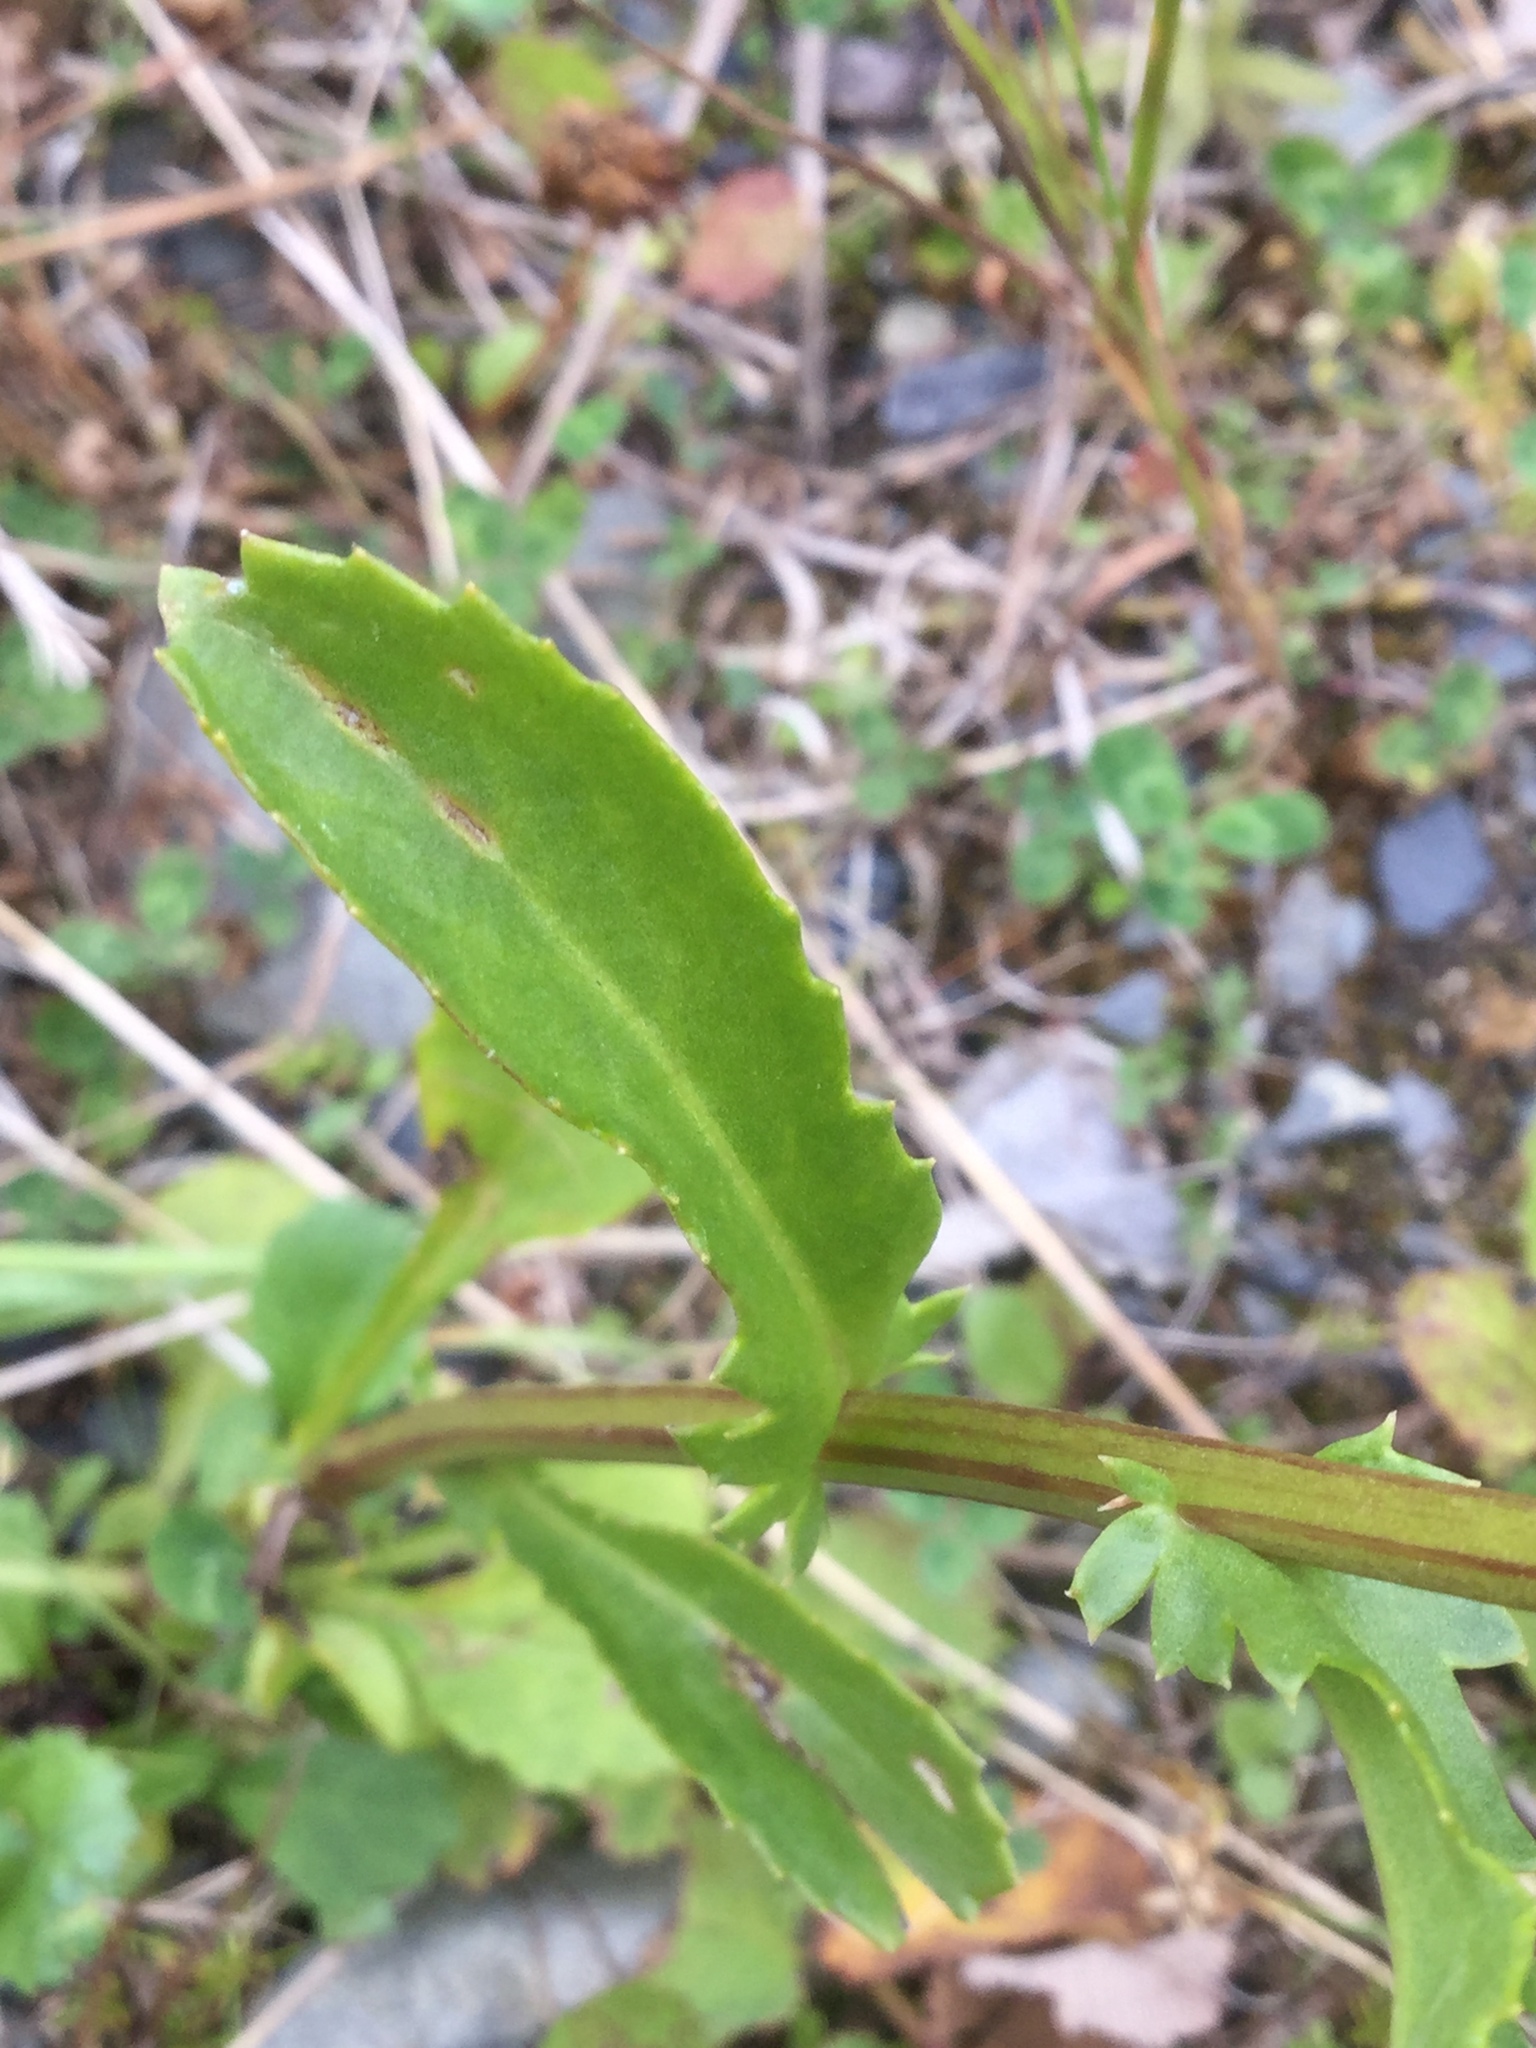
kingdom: Plantae
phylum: Tracheophyta
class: Magnoliopsida
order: Asterales
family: Asteraceae
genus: Leucanthemum
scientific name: Leucanthemum vulgare
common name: Oxeye daisy
